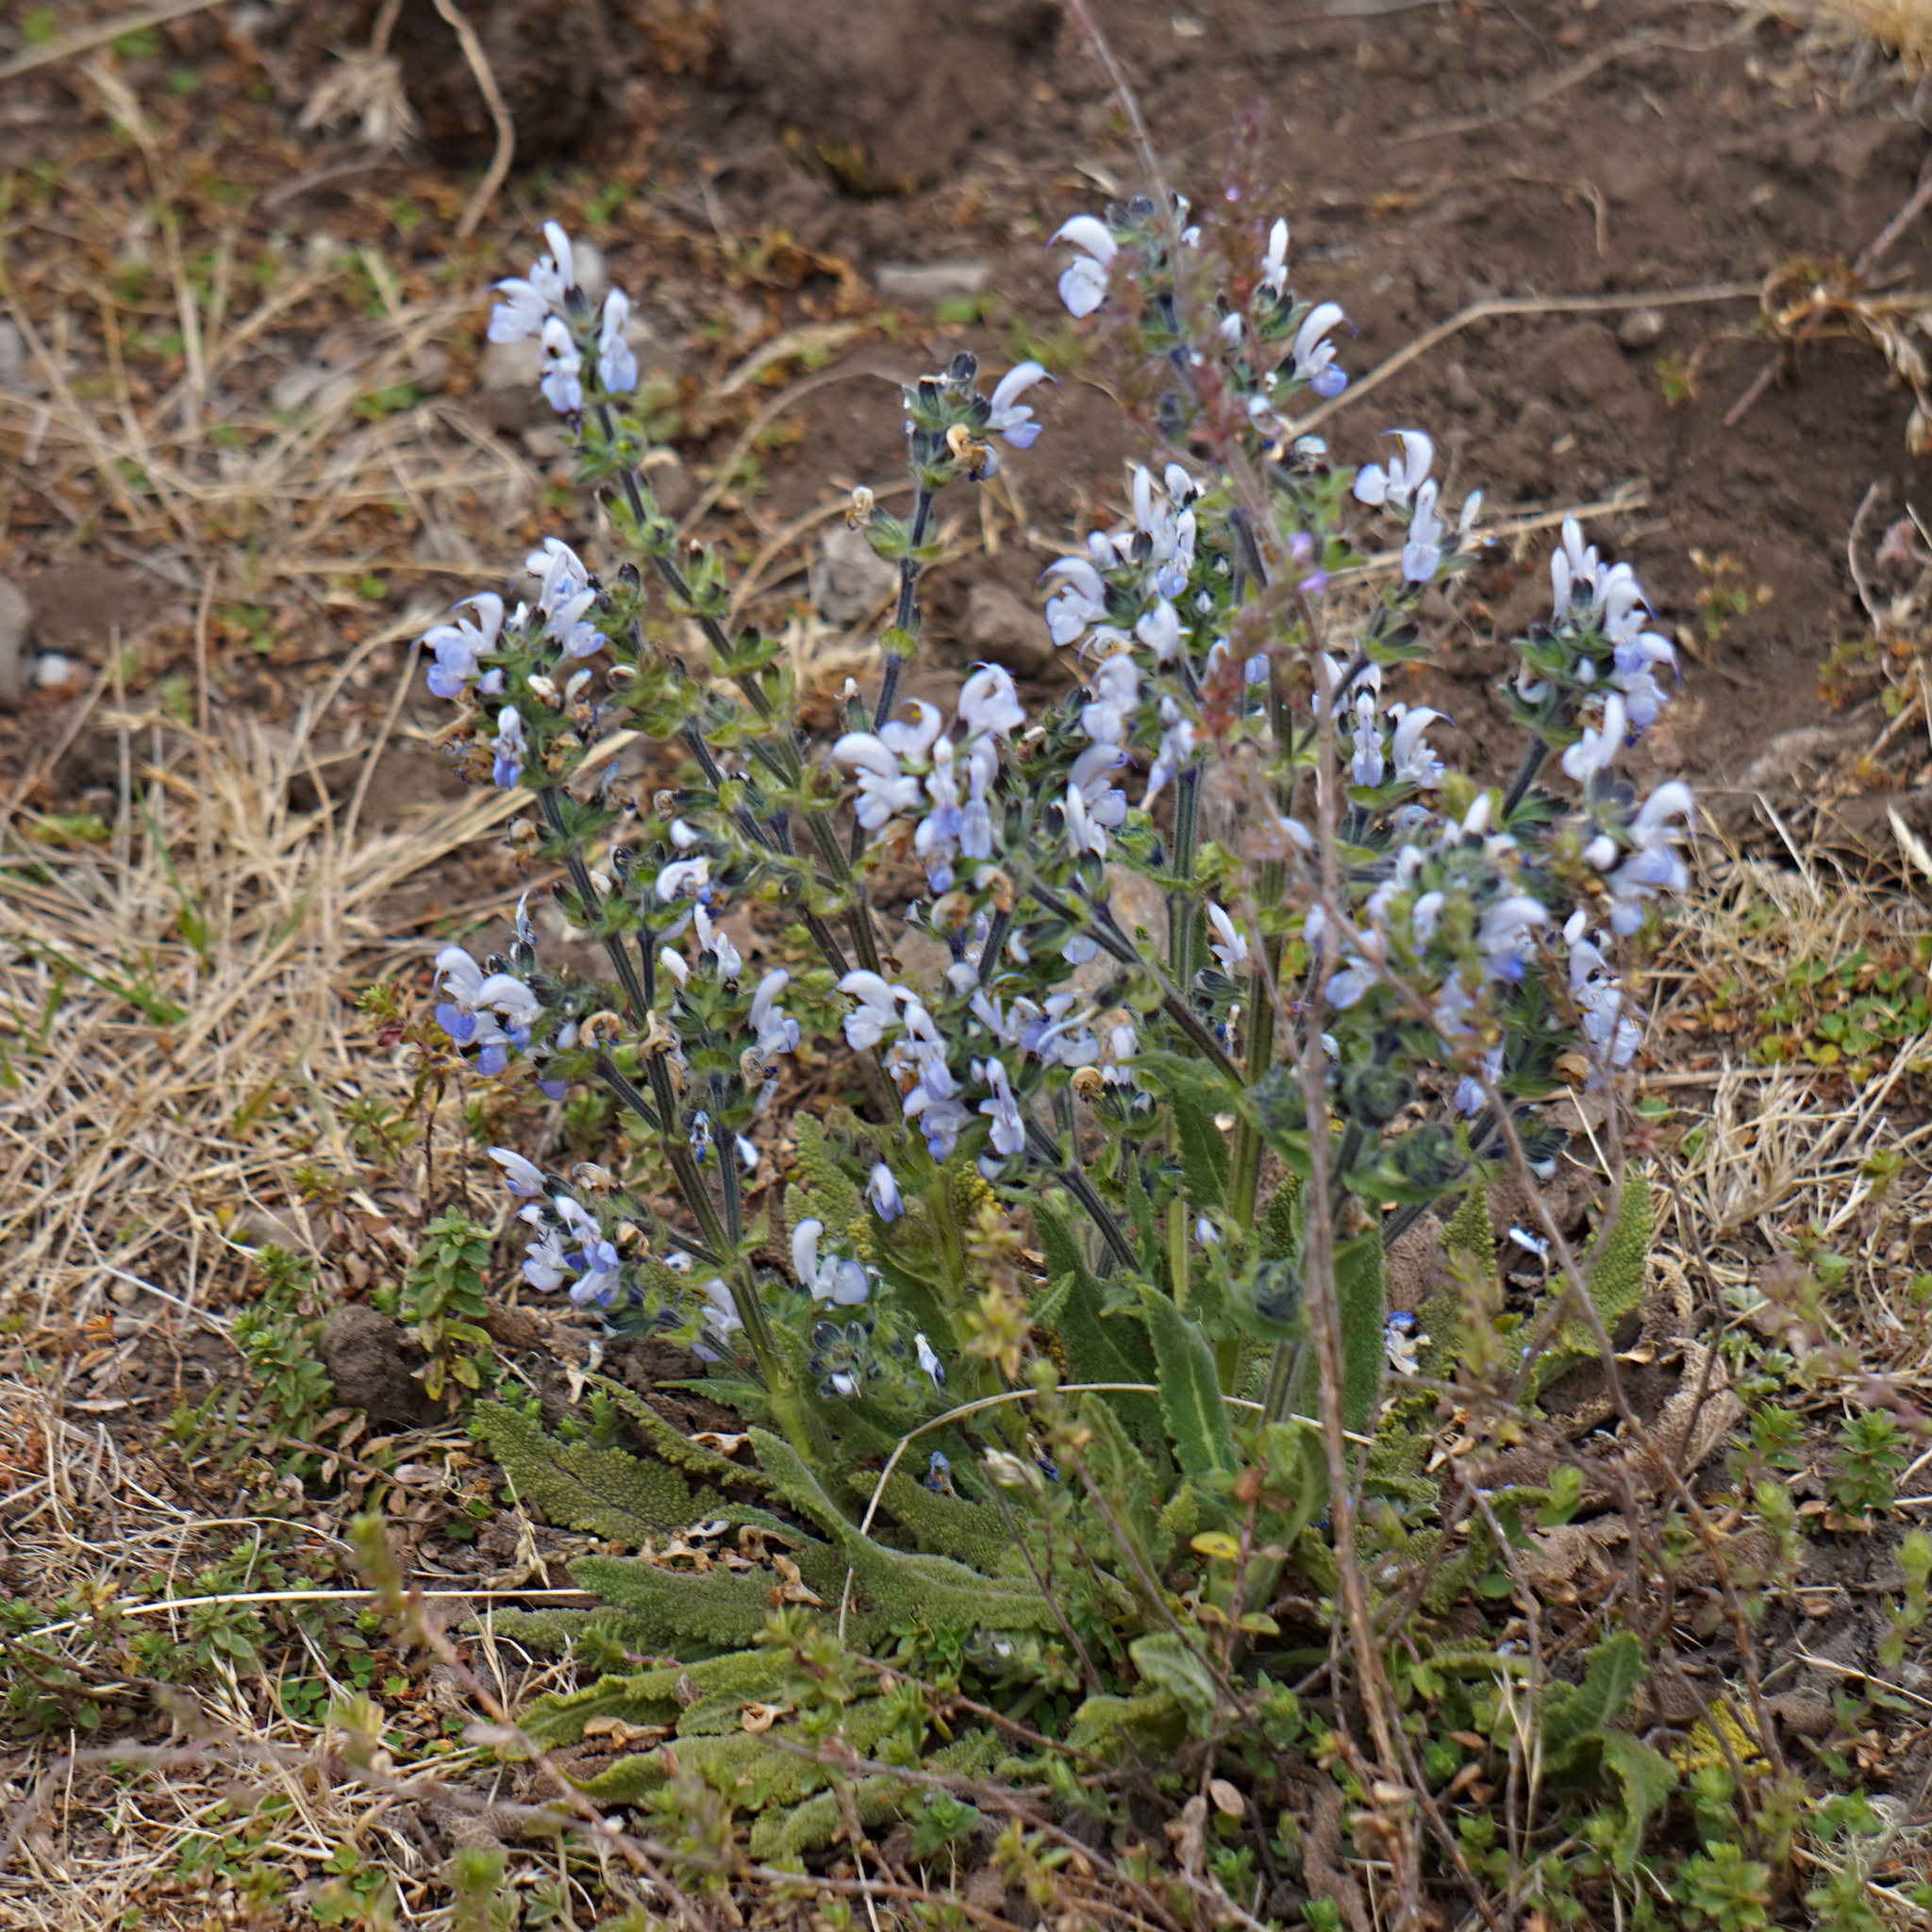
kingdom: Plantae
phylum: Tracheophyta
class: Magnoliopsida
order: Lamiales
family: Lamiaceae
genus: Salvia
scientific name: Salvia merjamie
